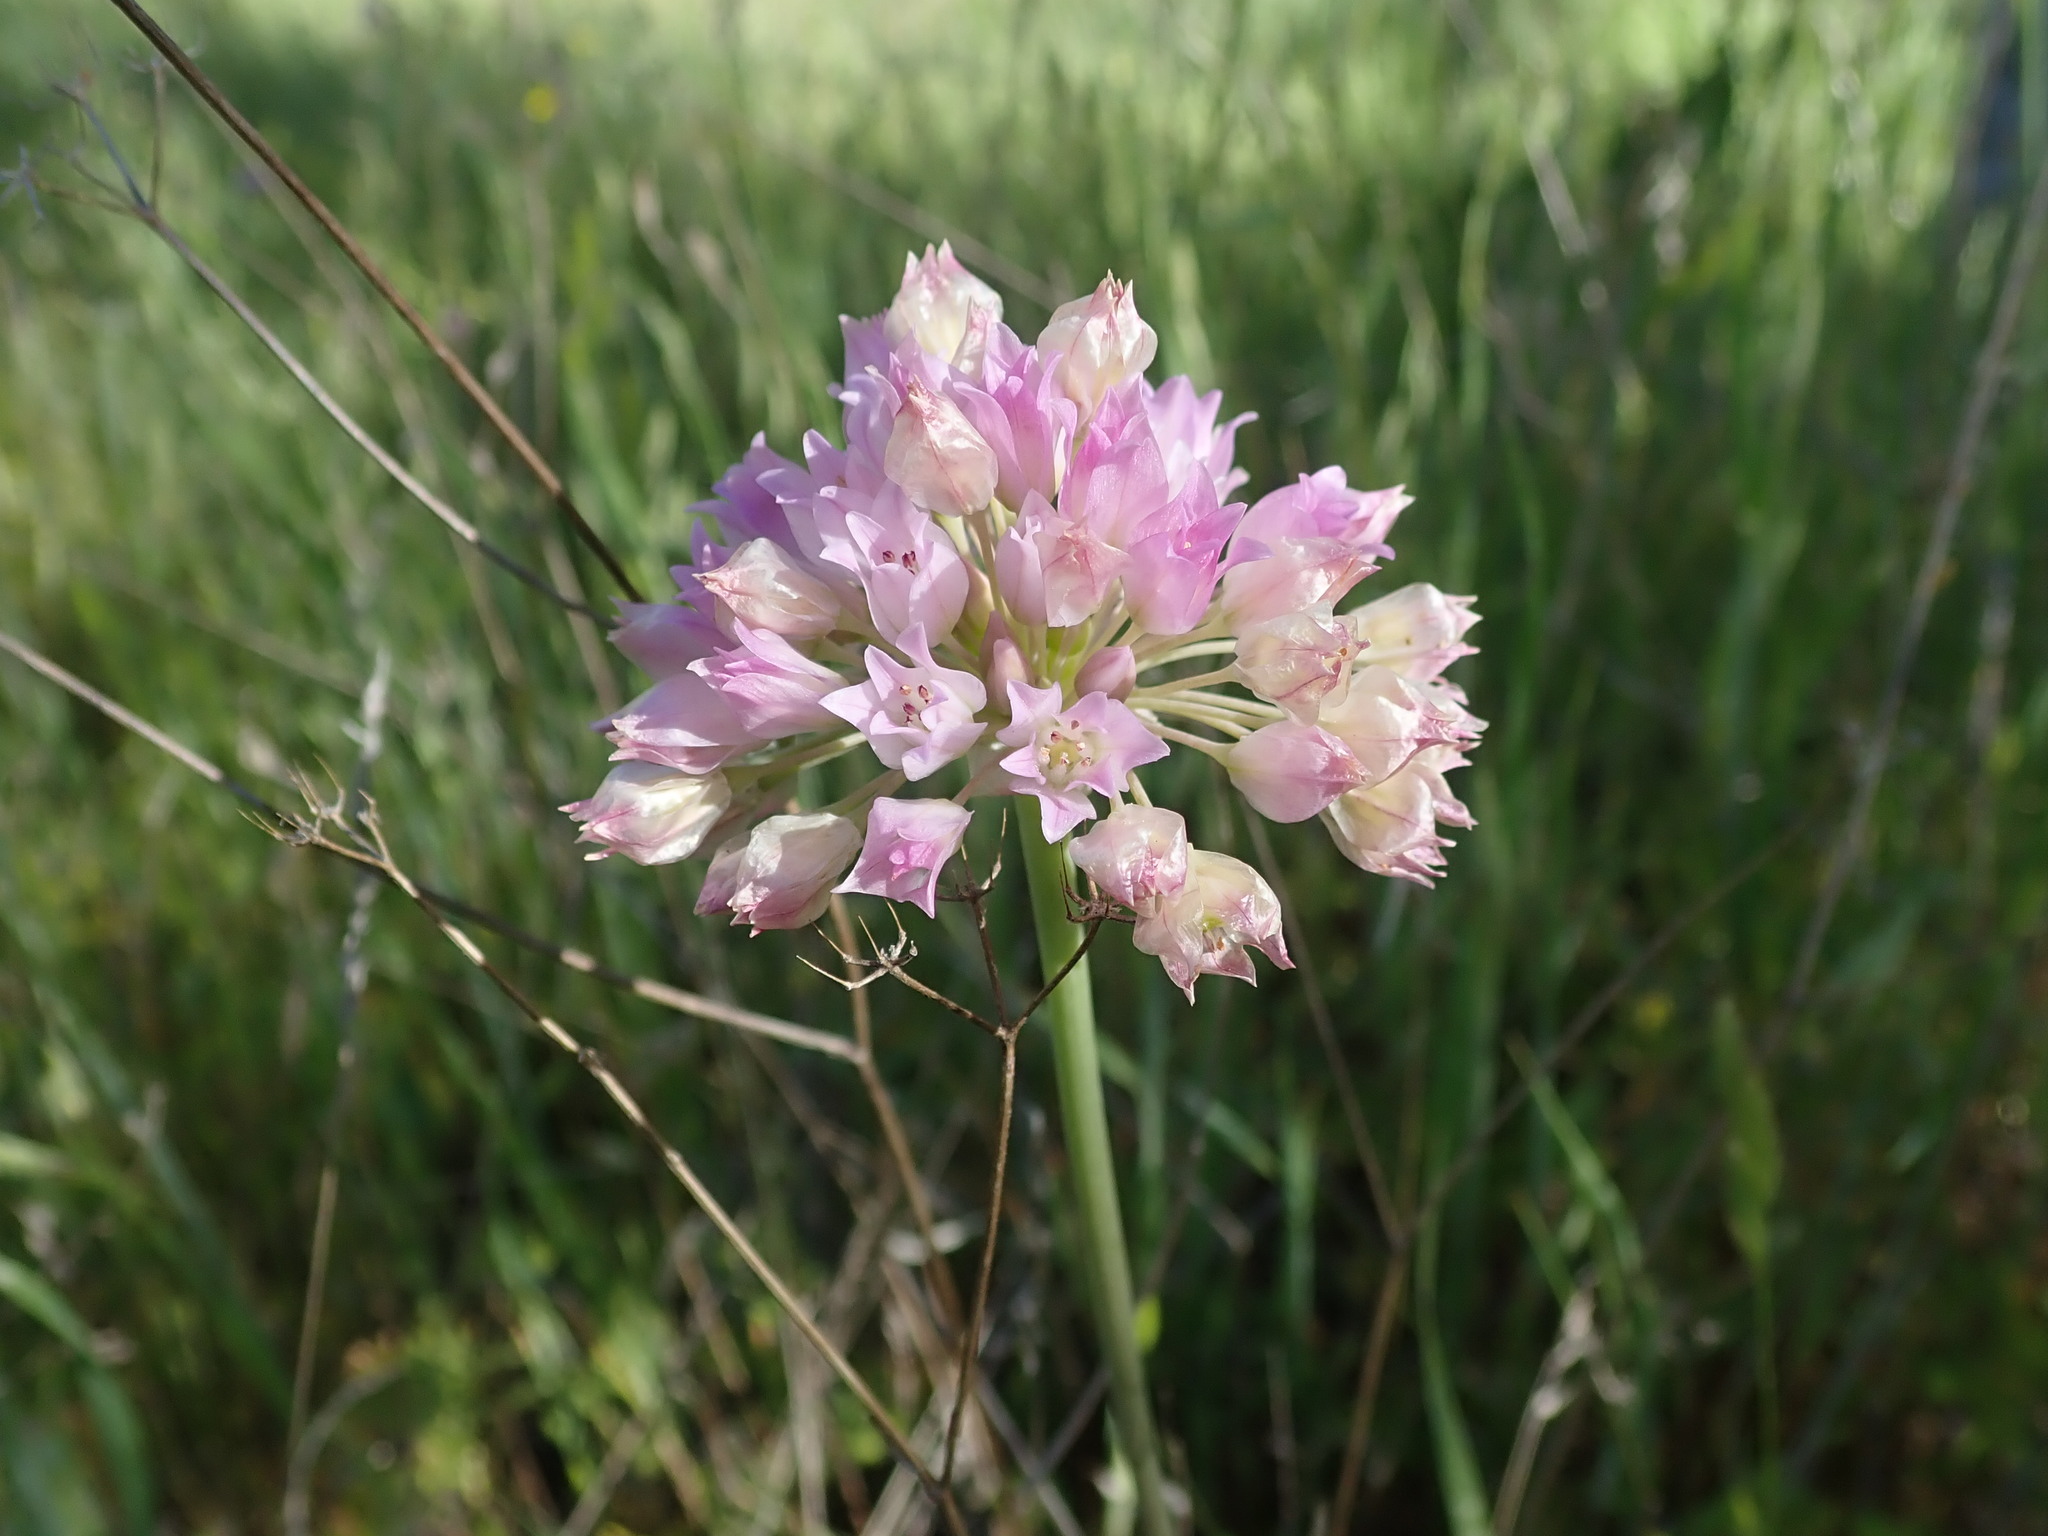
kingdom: Plantae
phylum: Tracheophyta
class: Liliopsida
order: Asparagales
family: Amaryllidaceae
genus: Allium
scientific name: Allium serra
